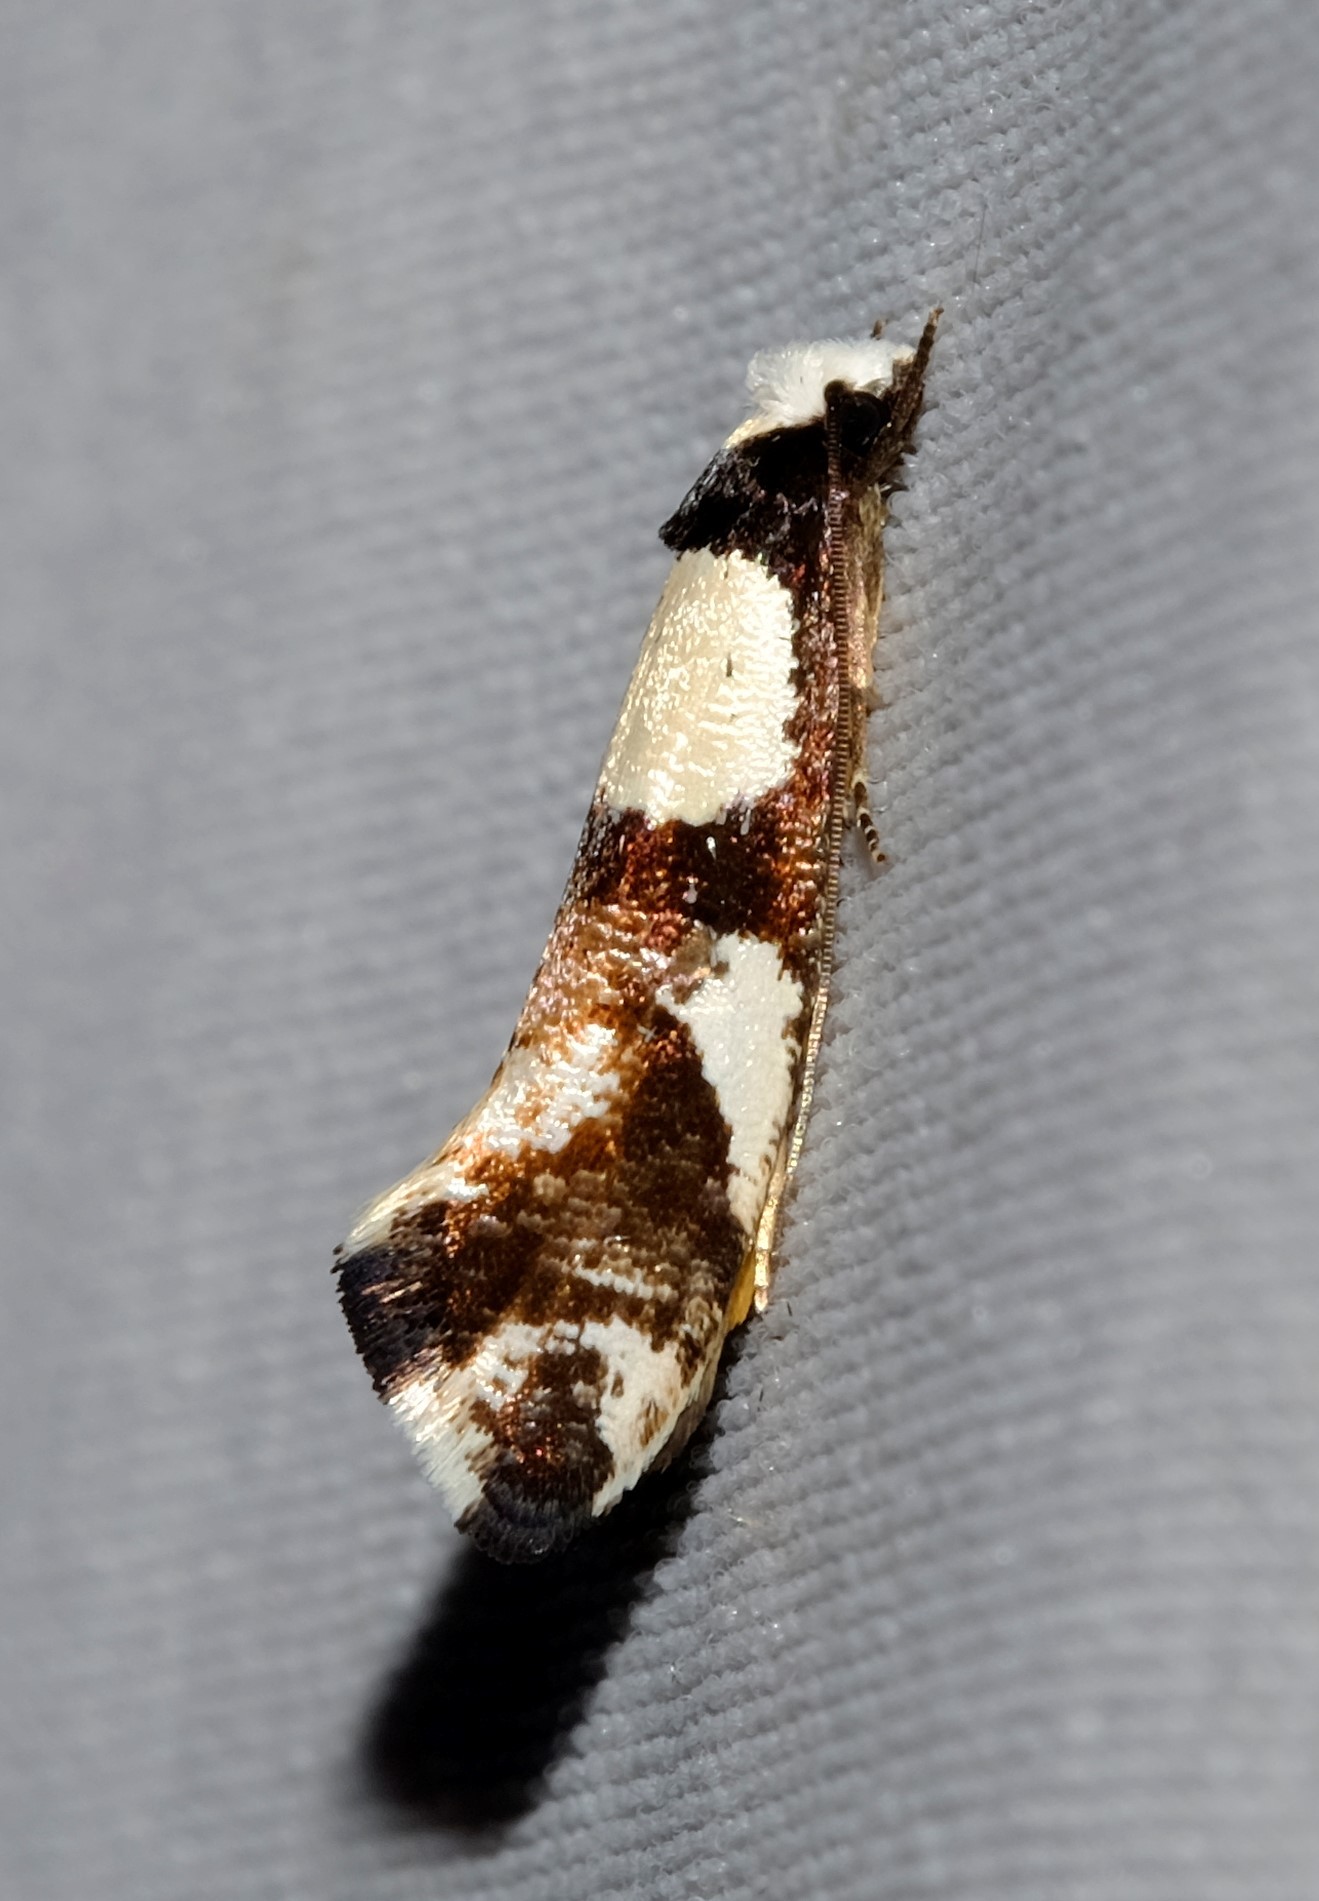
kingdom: Animalia
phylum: Arthropoda
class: Insecta
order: Lepidoptera
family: Tineidae
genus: Monopis
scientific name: Monopis icterogastra
